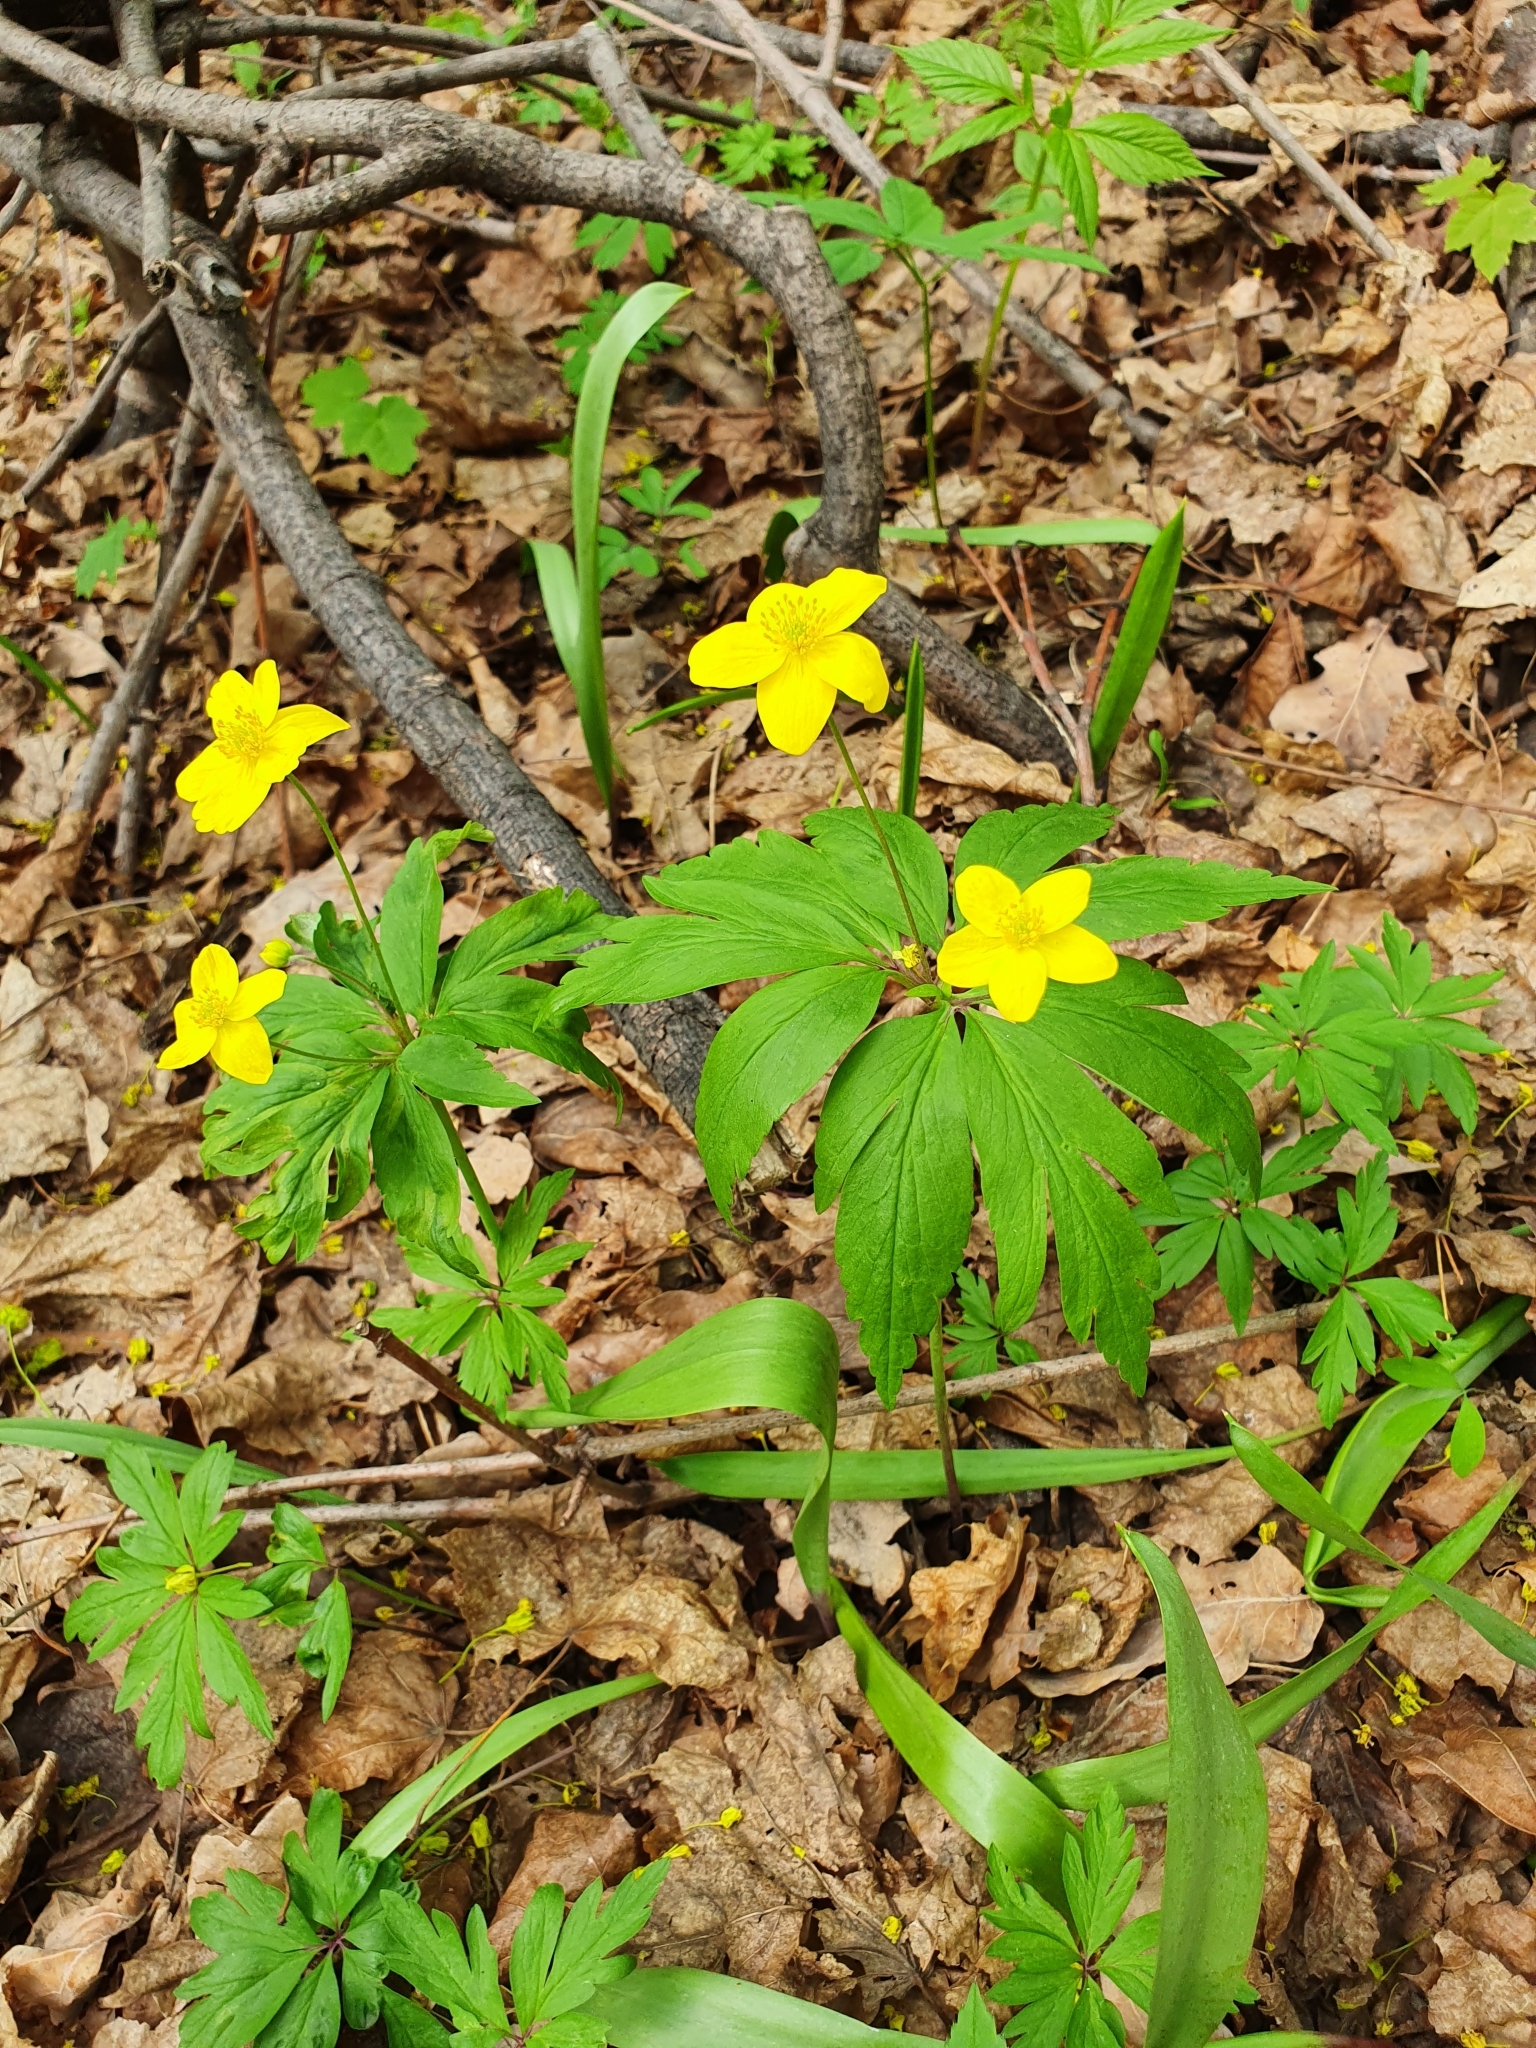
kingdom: Plantae
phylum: Tracheophyta
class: Magnoliopsida
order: Ranunculales
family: Ranunculaceae
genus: Anemone
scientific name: Anemone ranunculoides
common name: Yellow anemone
